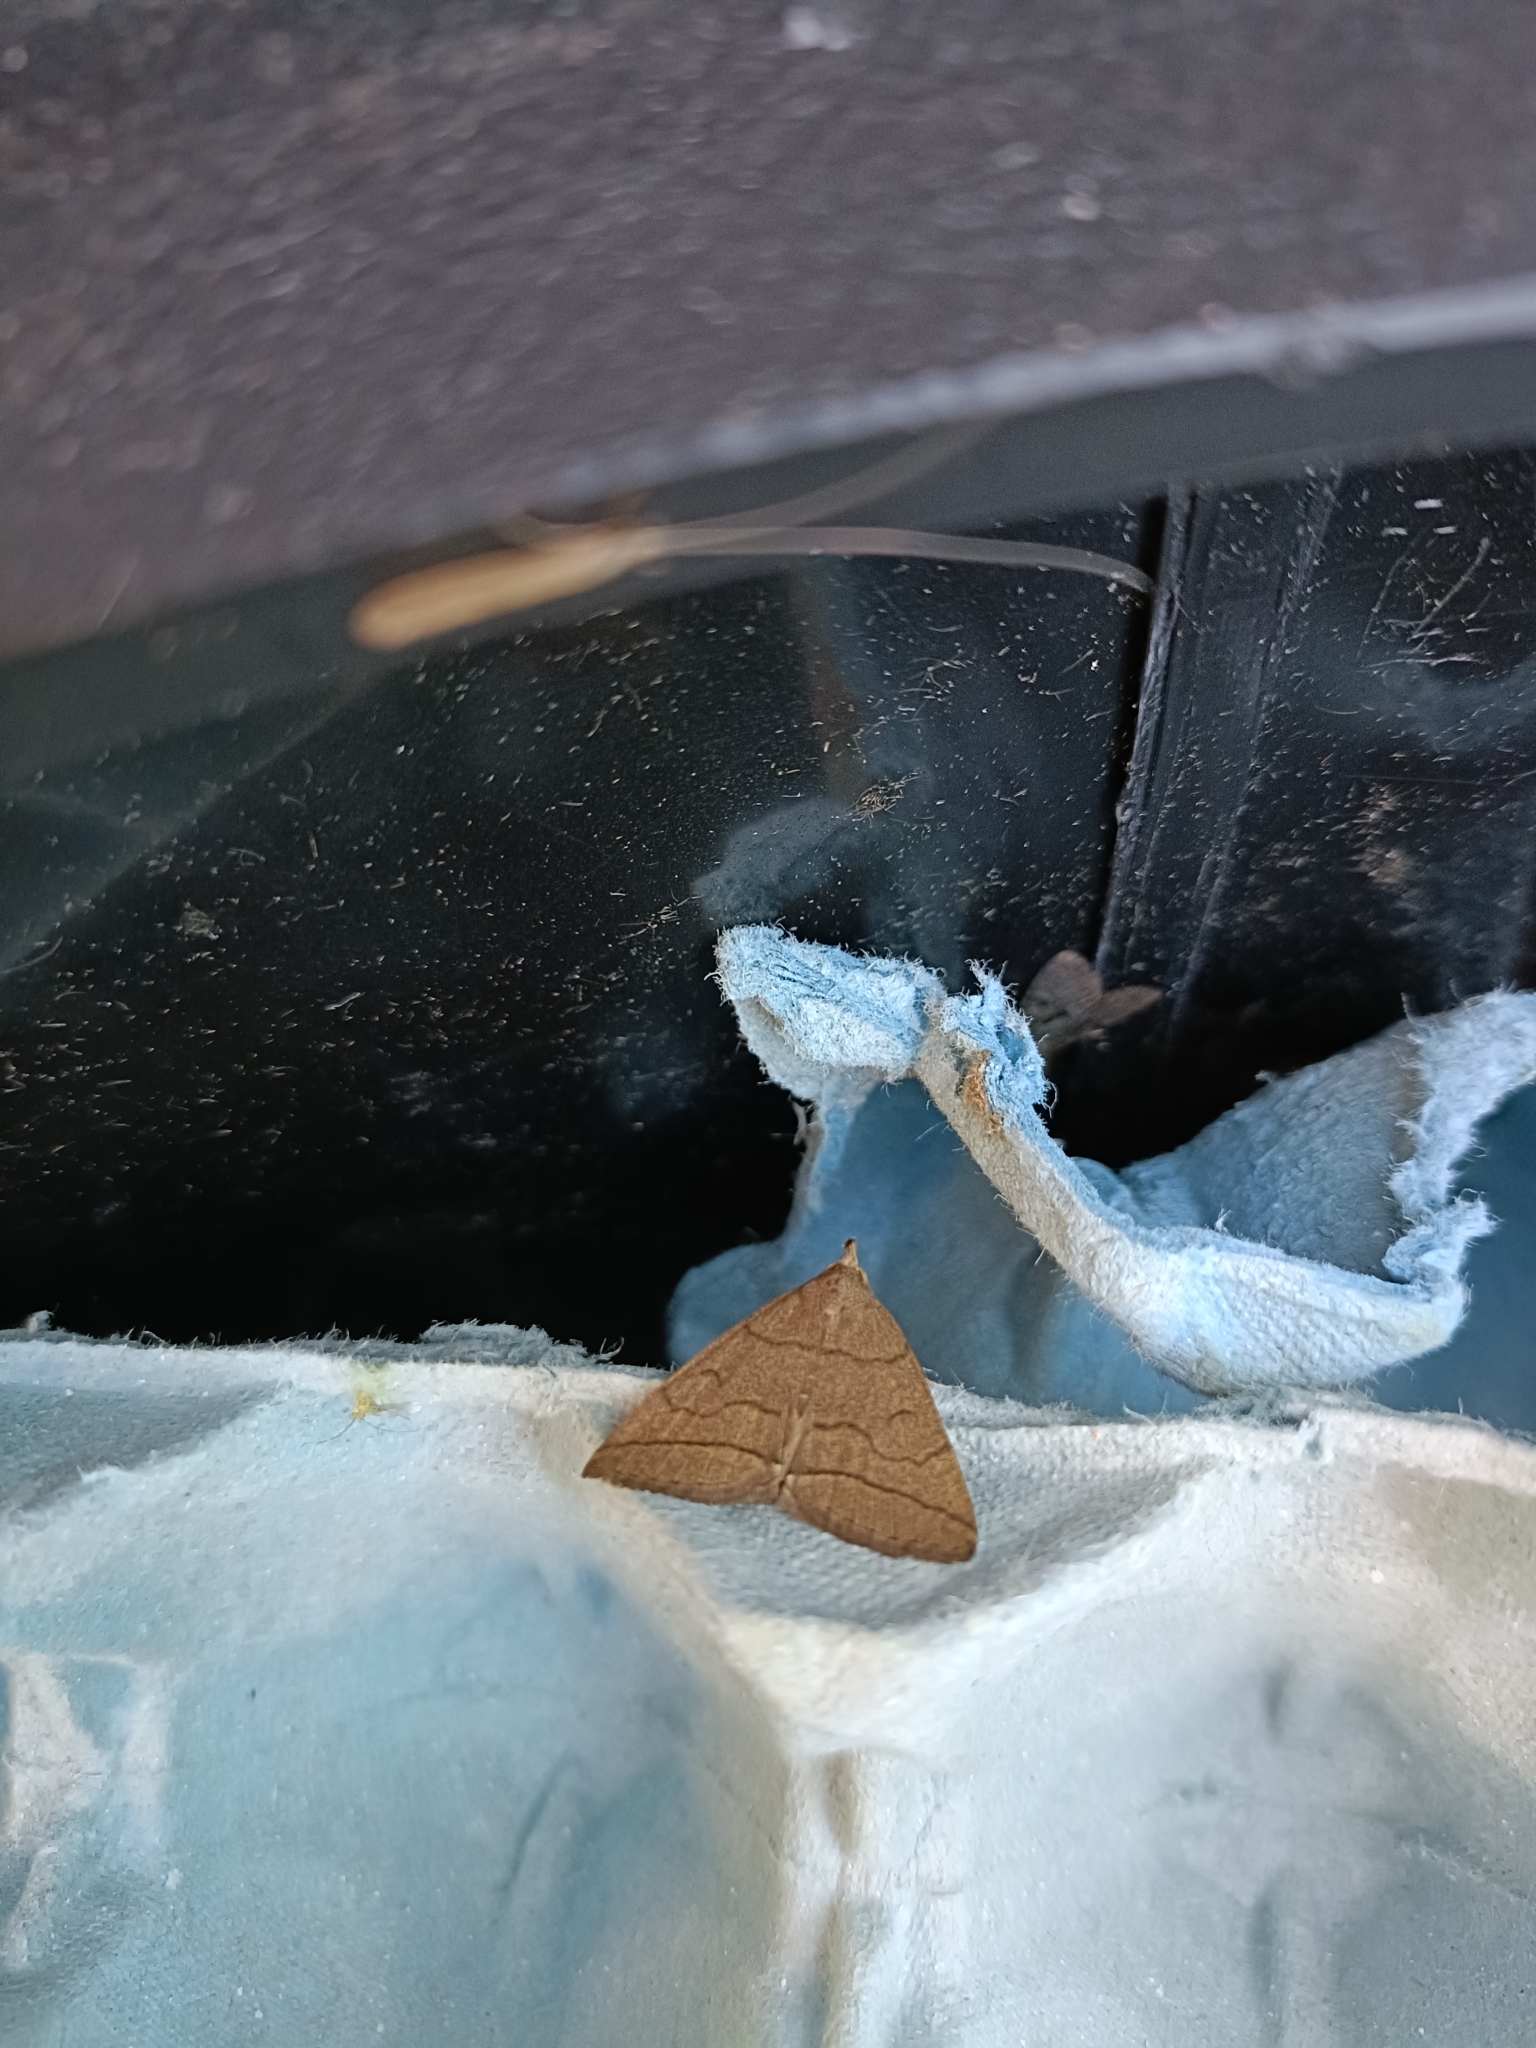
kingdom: Animalia
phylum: Arthropoda
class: Insecta
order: Lepidoptera
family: Erebidae
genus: Herminia
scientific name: Herminia tarsipennalis
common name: Fan-foot
